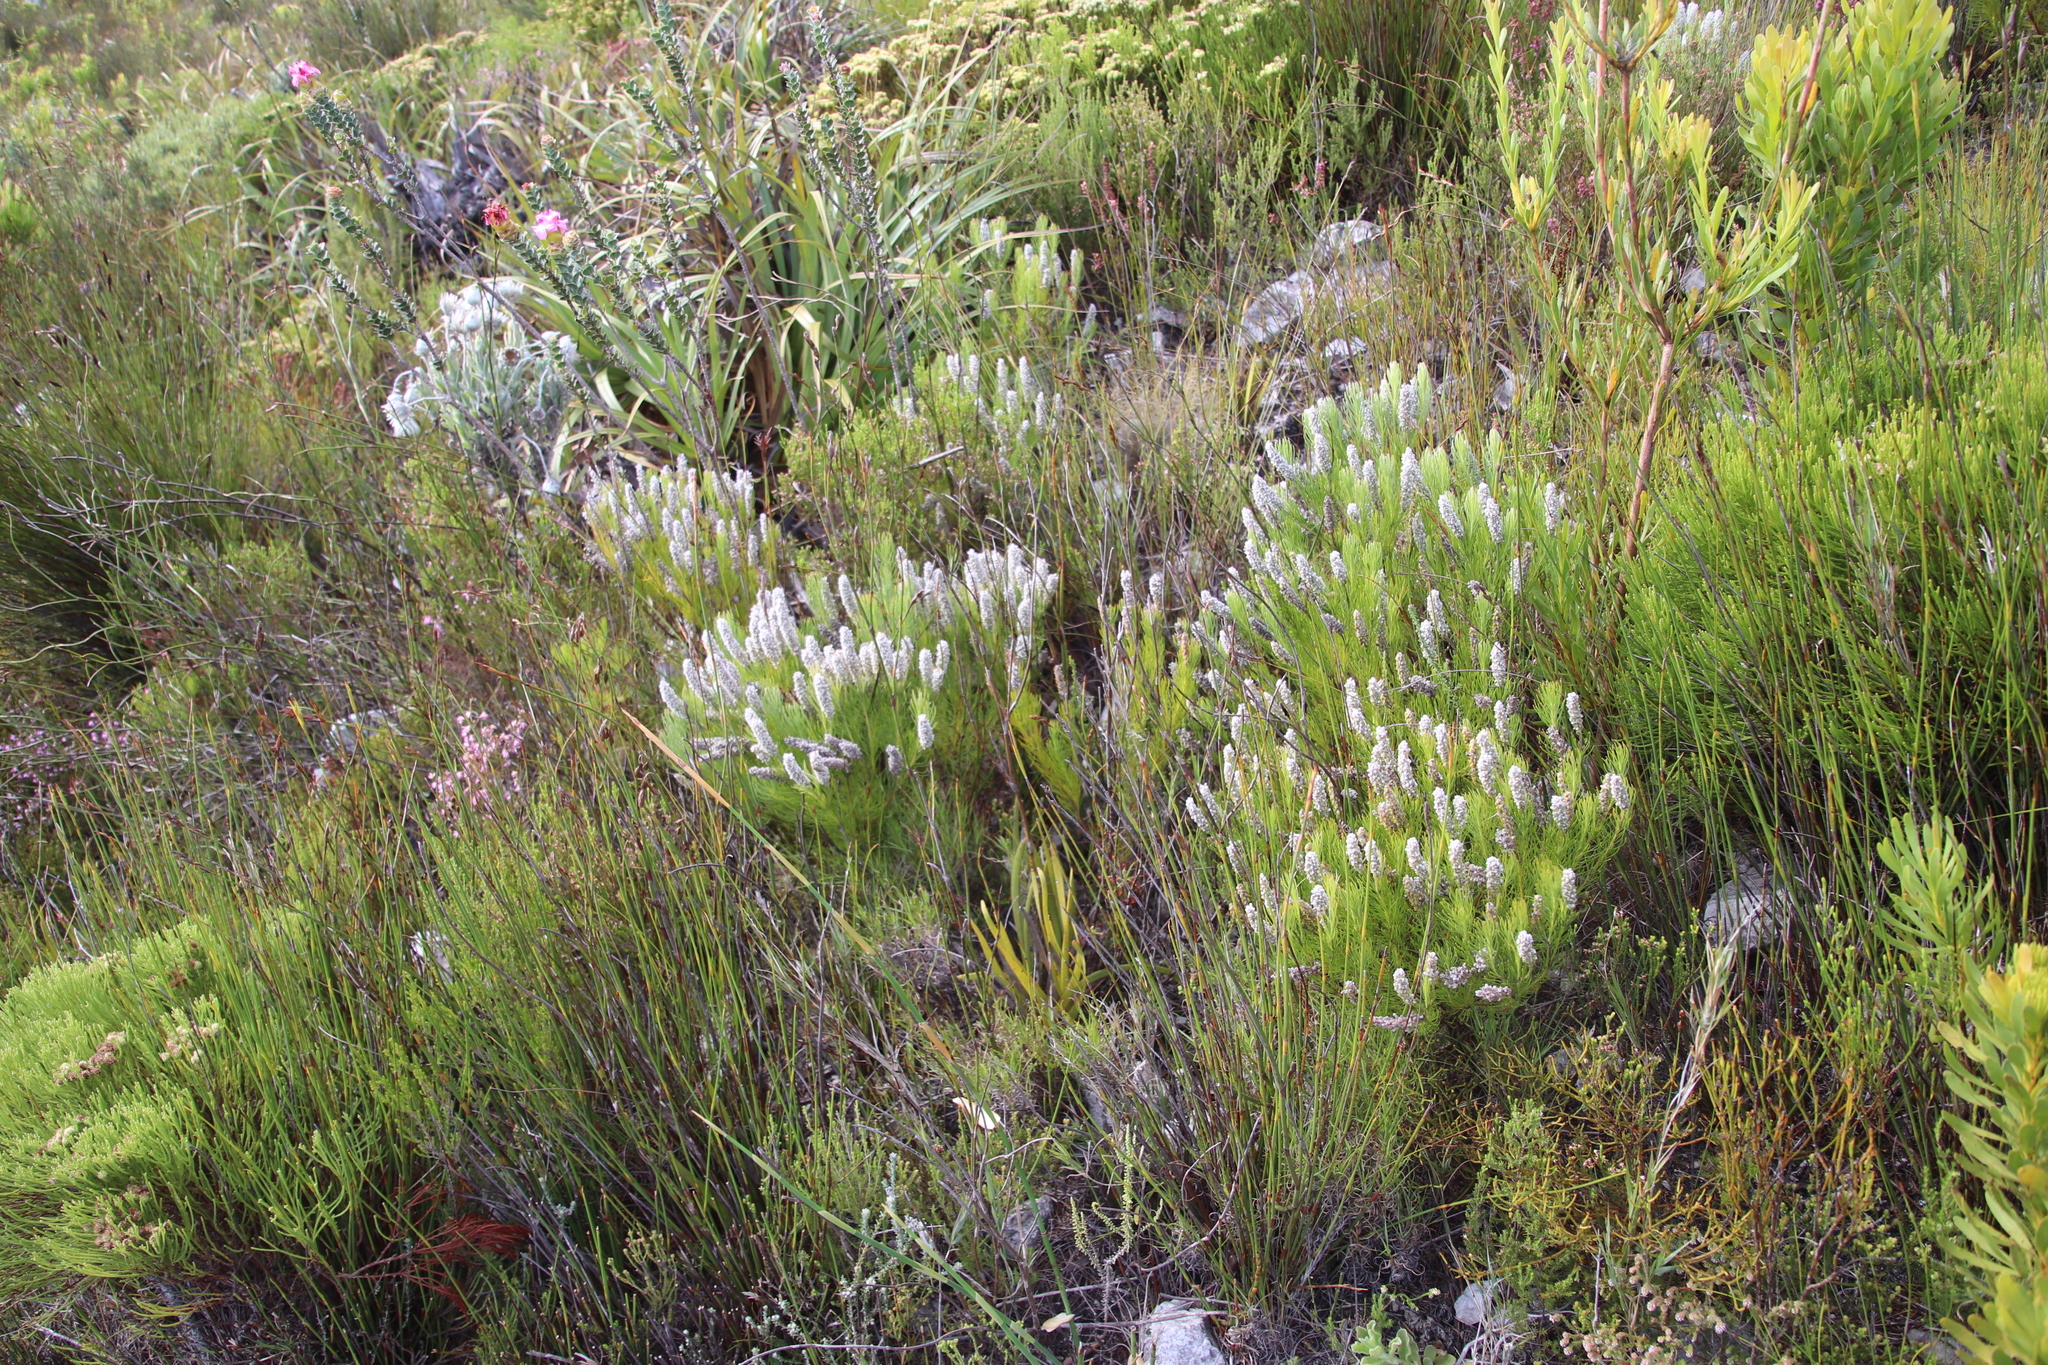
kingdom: Plantae
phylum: Tracheophyta
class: Magnoliopsida
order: Proteales
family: Proteaceae
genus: Spatalla
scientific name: Spatalla curvifolia
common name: White-stalked spoon
